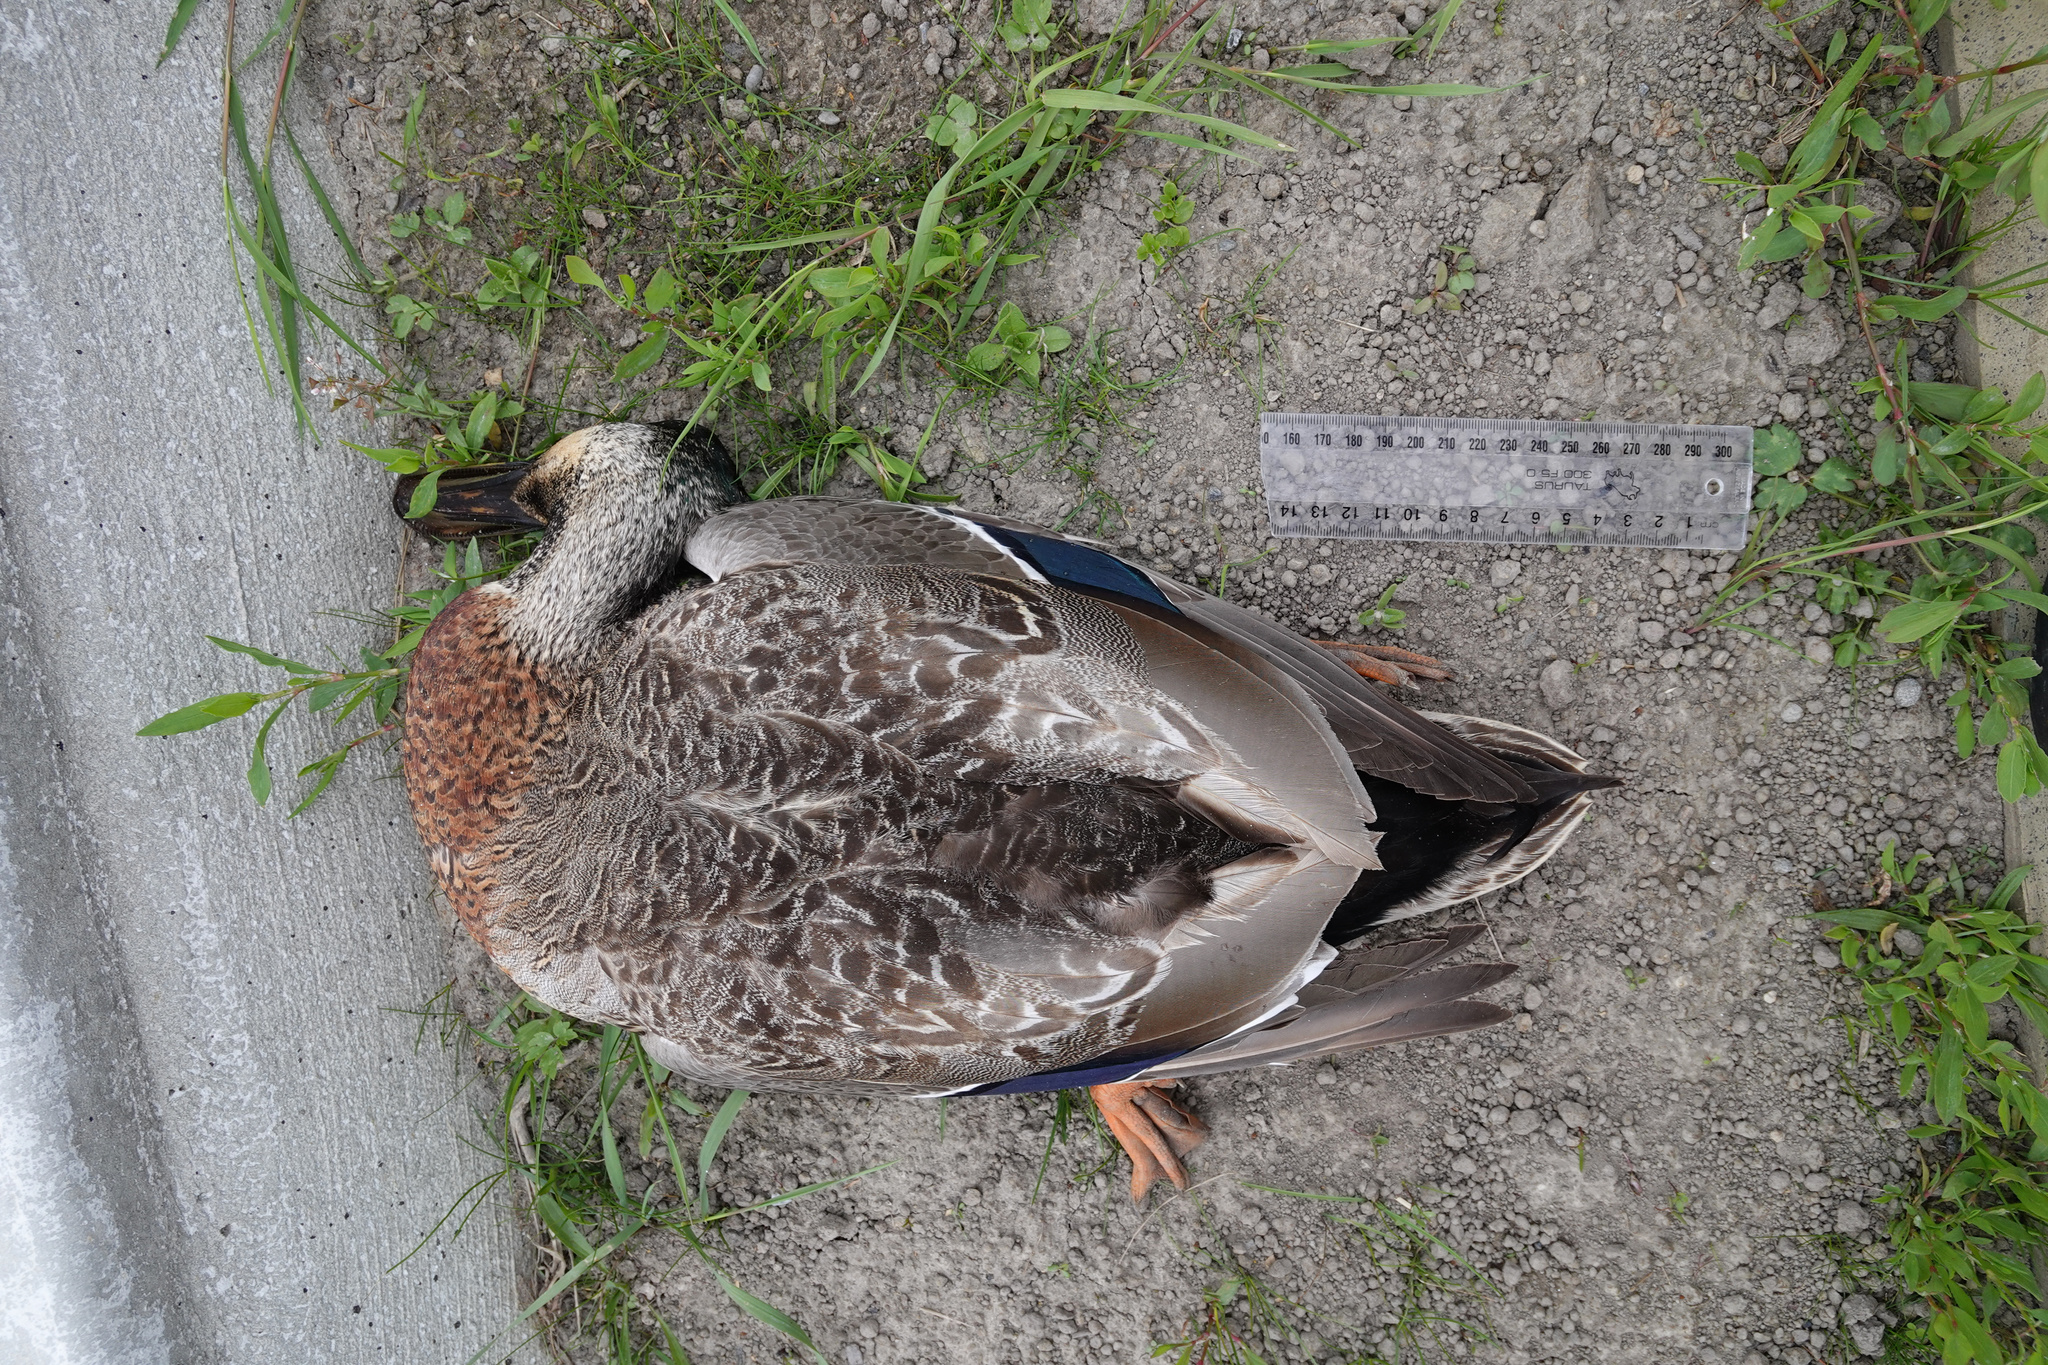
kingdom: Animalia
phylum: Chordata
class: Aves
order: Anseriformes
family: Anatidae
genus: Anas
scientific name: Anas
